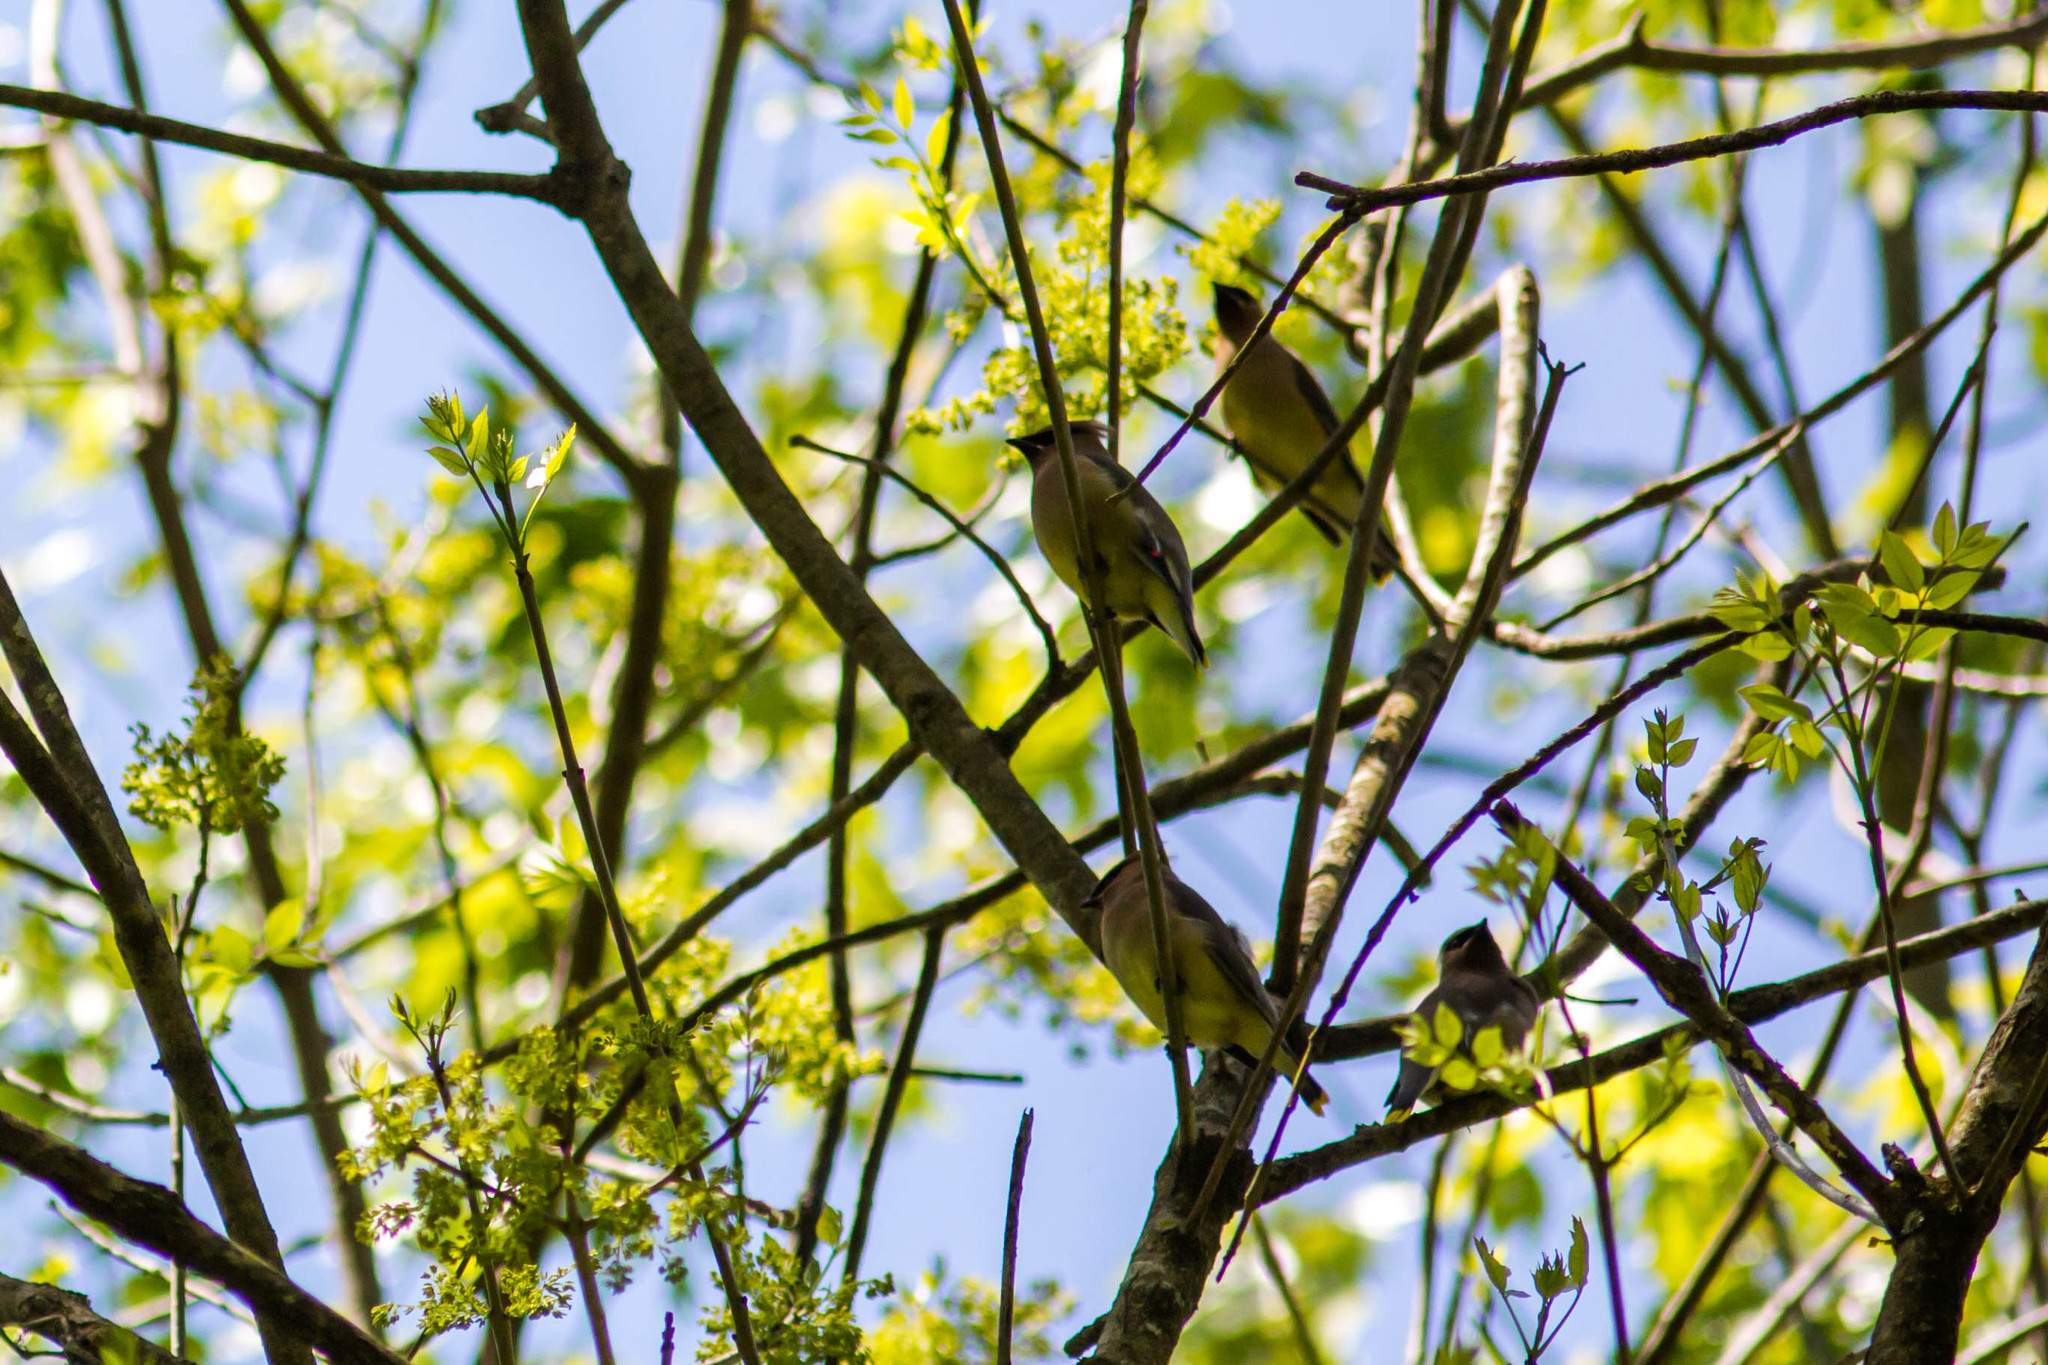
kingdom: Animalia
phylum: Chordata
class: Aves
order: Passeriformes
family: Bombycillidae
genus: Bombycilla
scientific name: Bombycilla cedrorum
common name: Cedar waxwing
